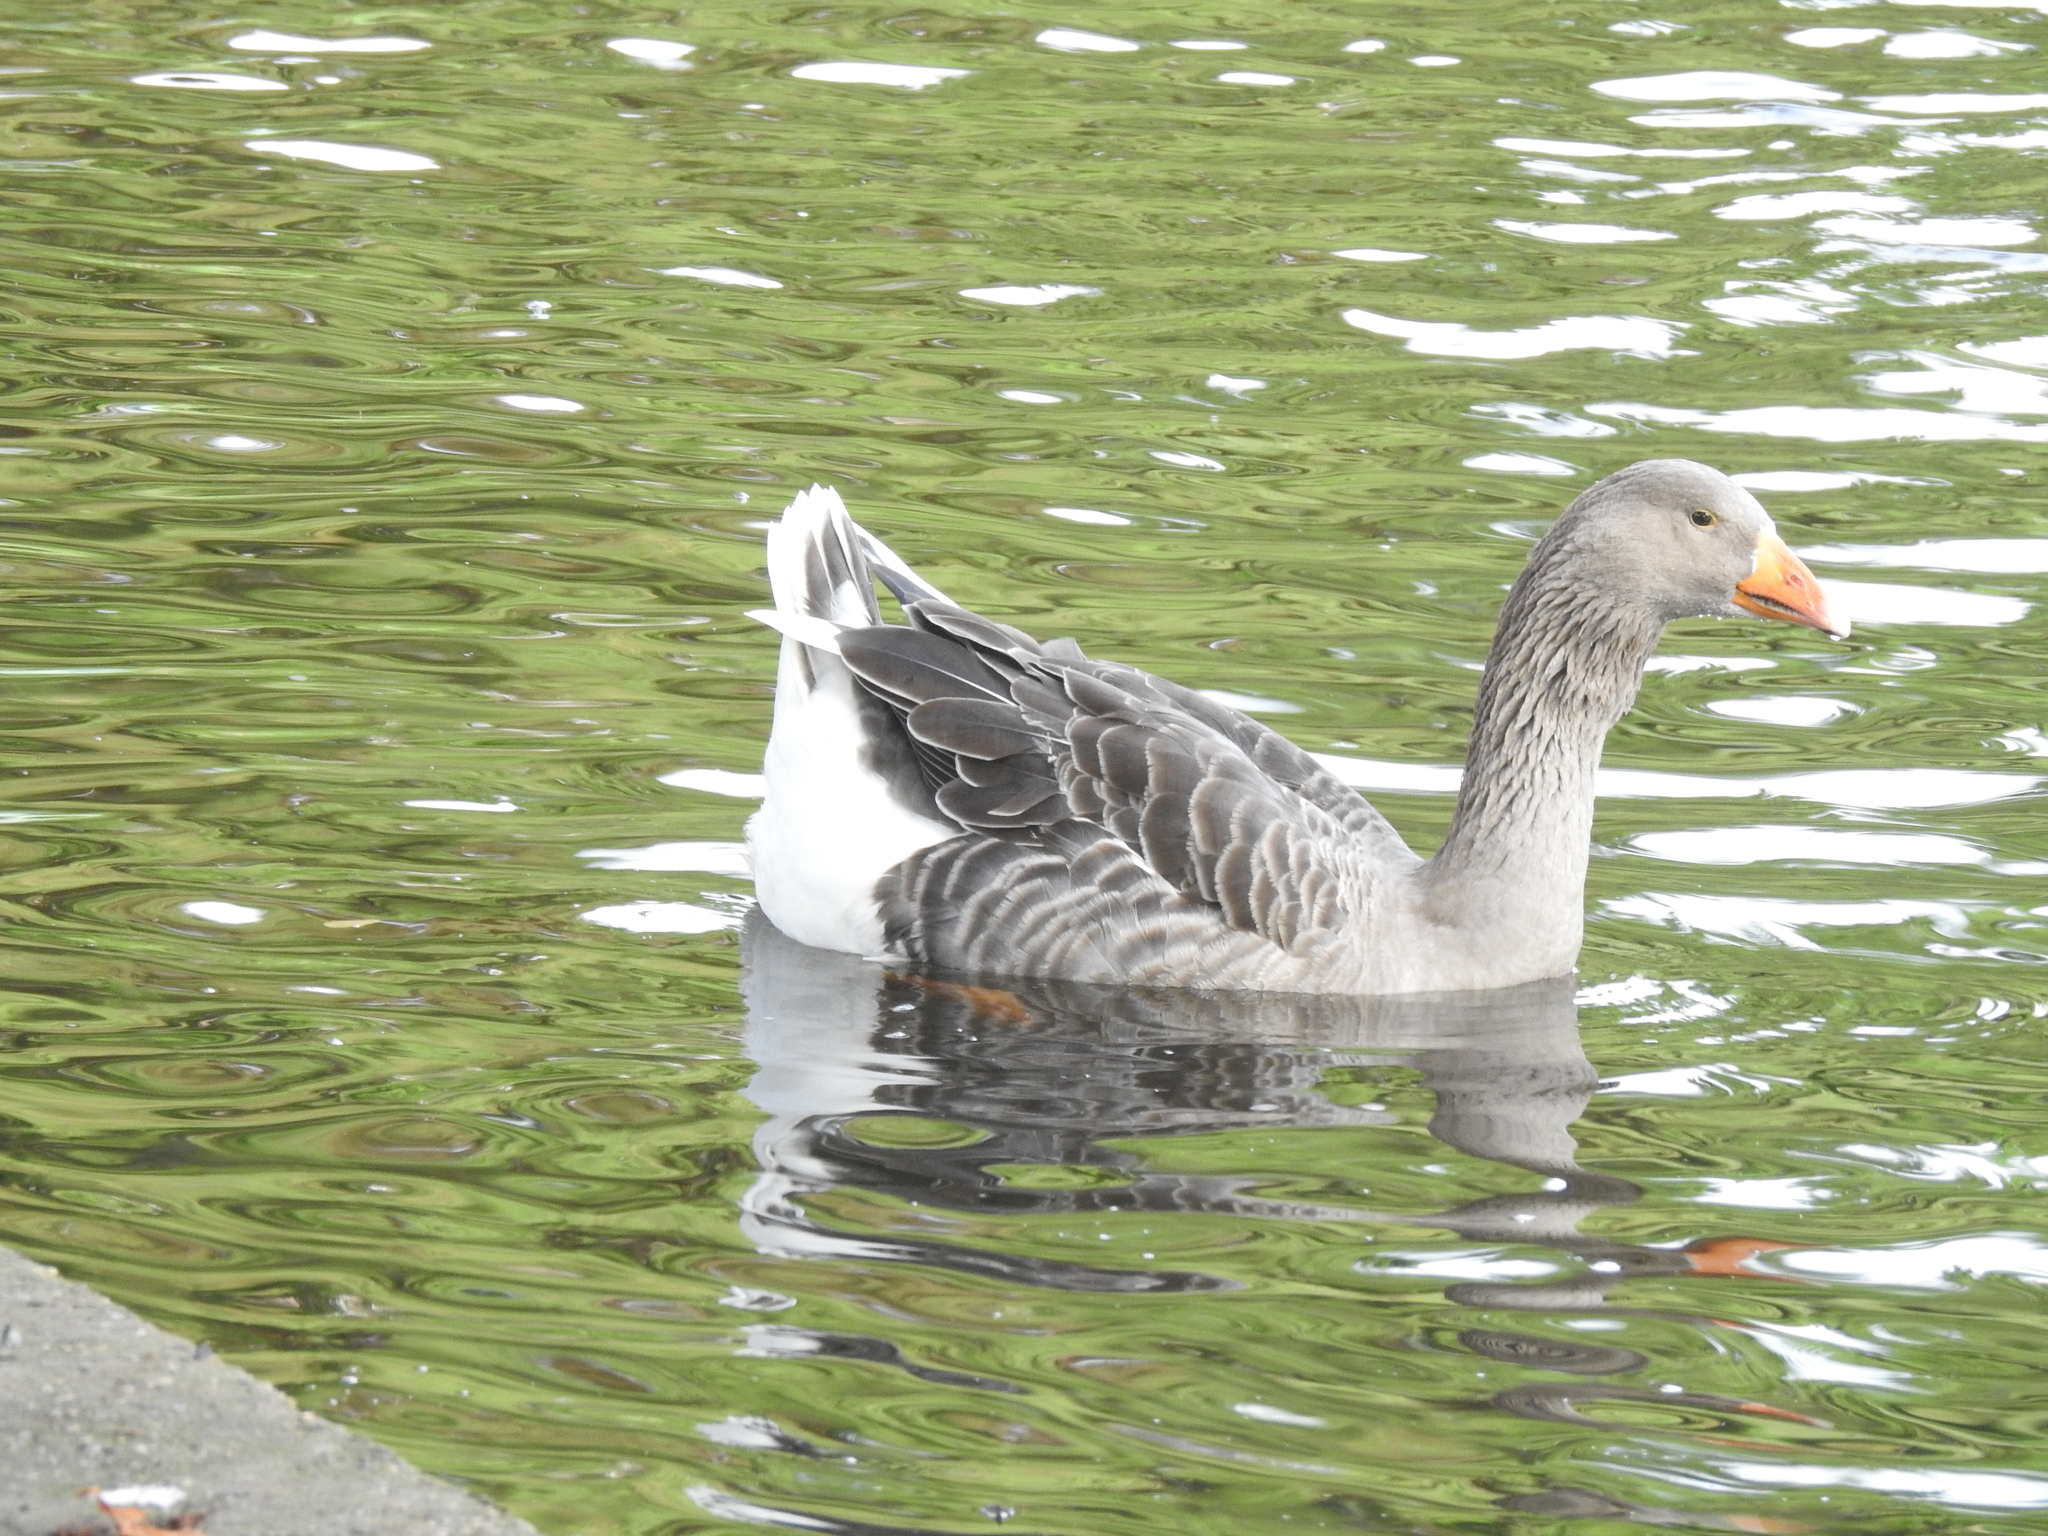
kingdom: Animalia
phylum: Chordata
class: Aves
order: Anseriformes
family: Anatidae
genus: Anser
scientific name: Anser anser
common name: Greylag goose
